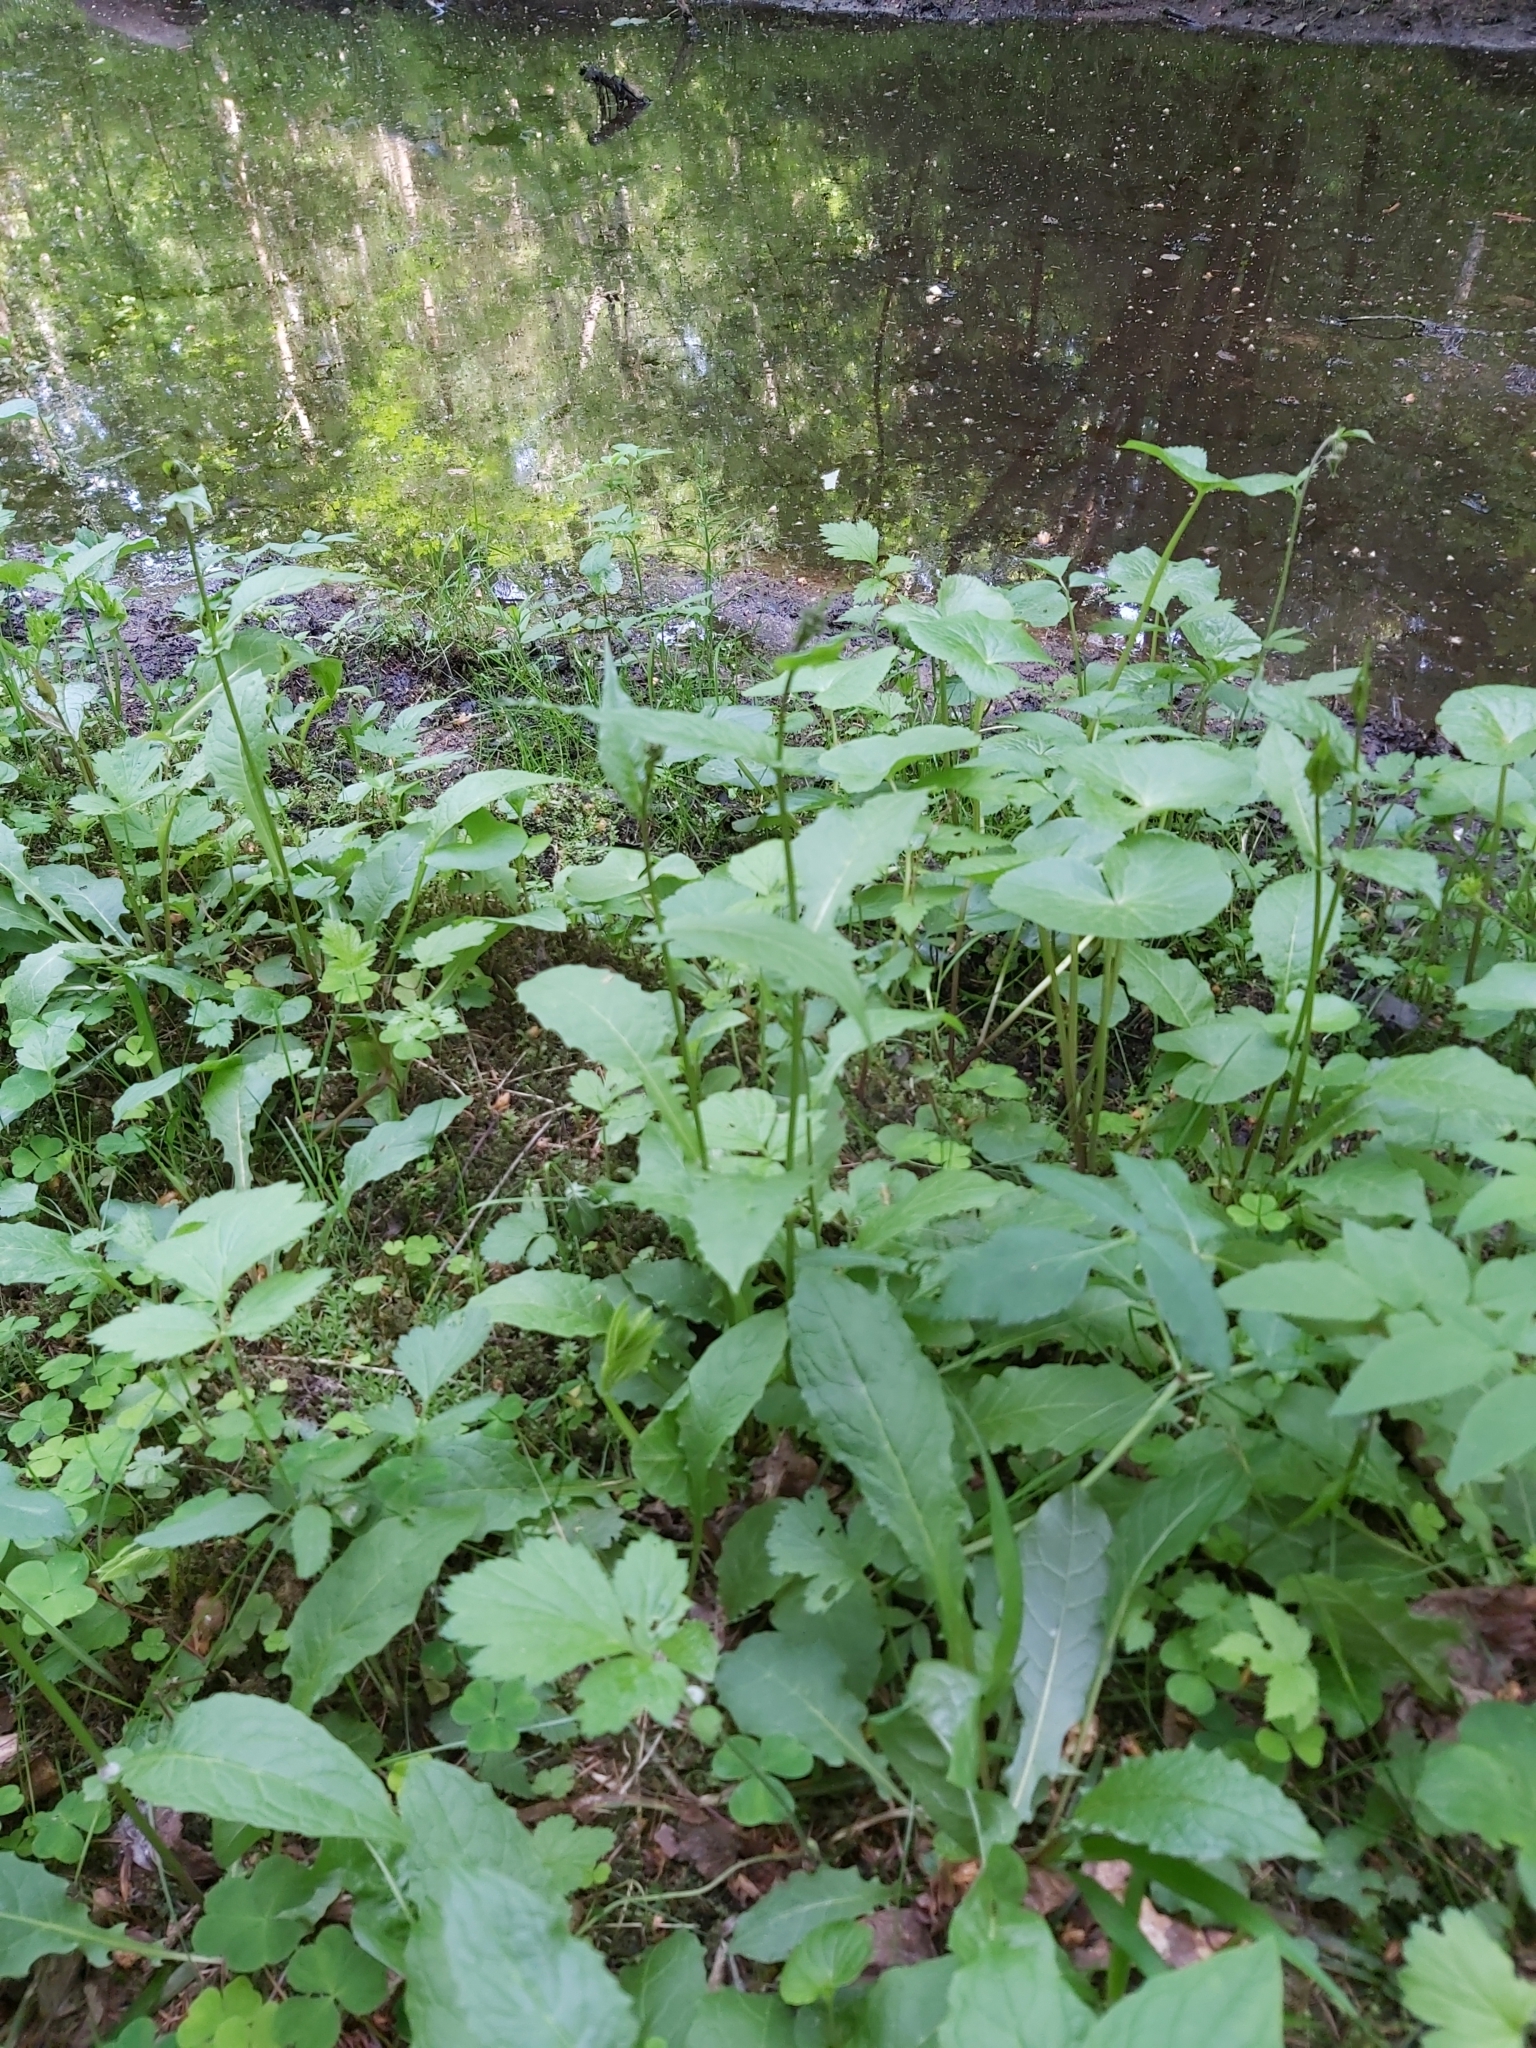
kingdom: Plantae
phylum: Tracheophyta
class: Magnoliopsida
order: Asterales
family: Asteraceae
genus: Crepis
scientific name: Crepis paludosa
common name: Marsh hawk's-beard
